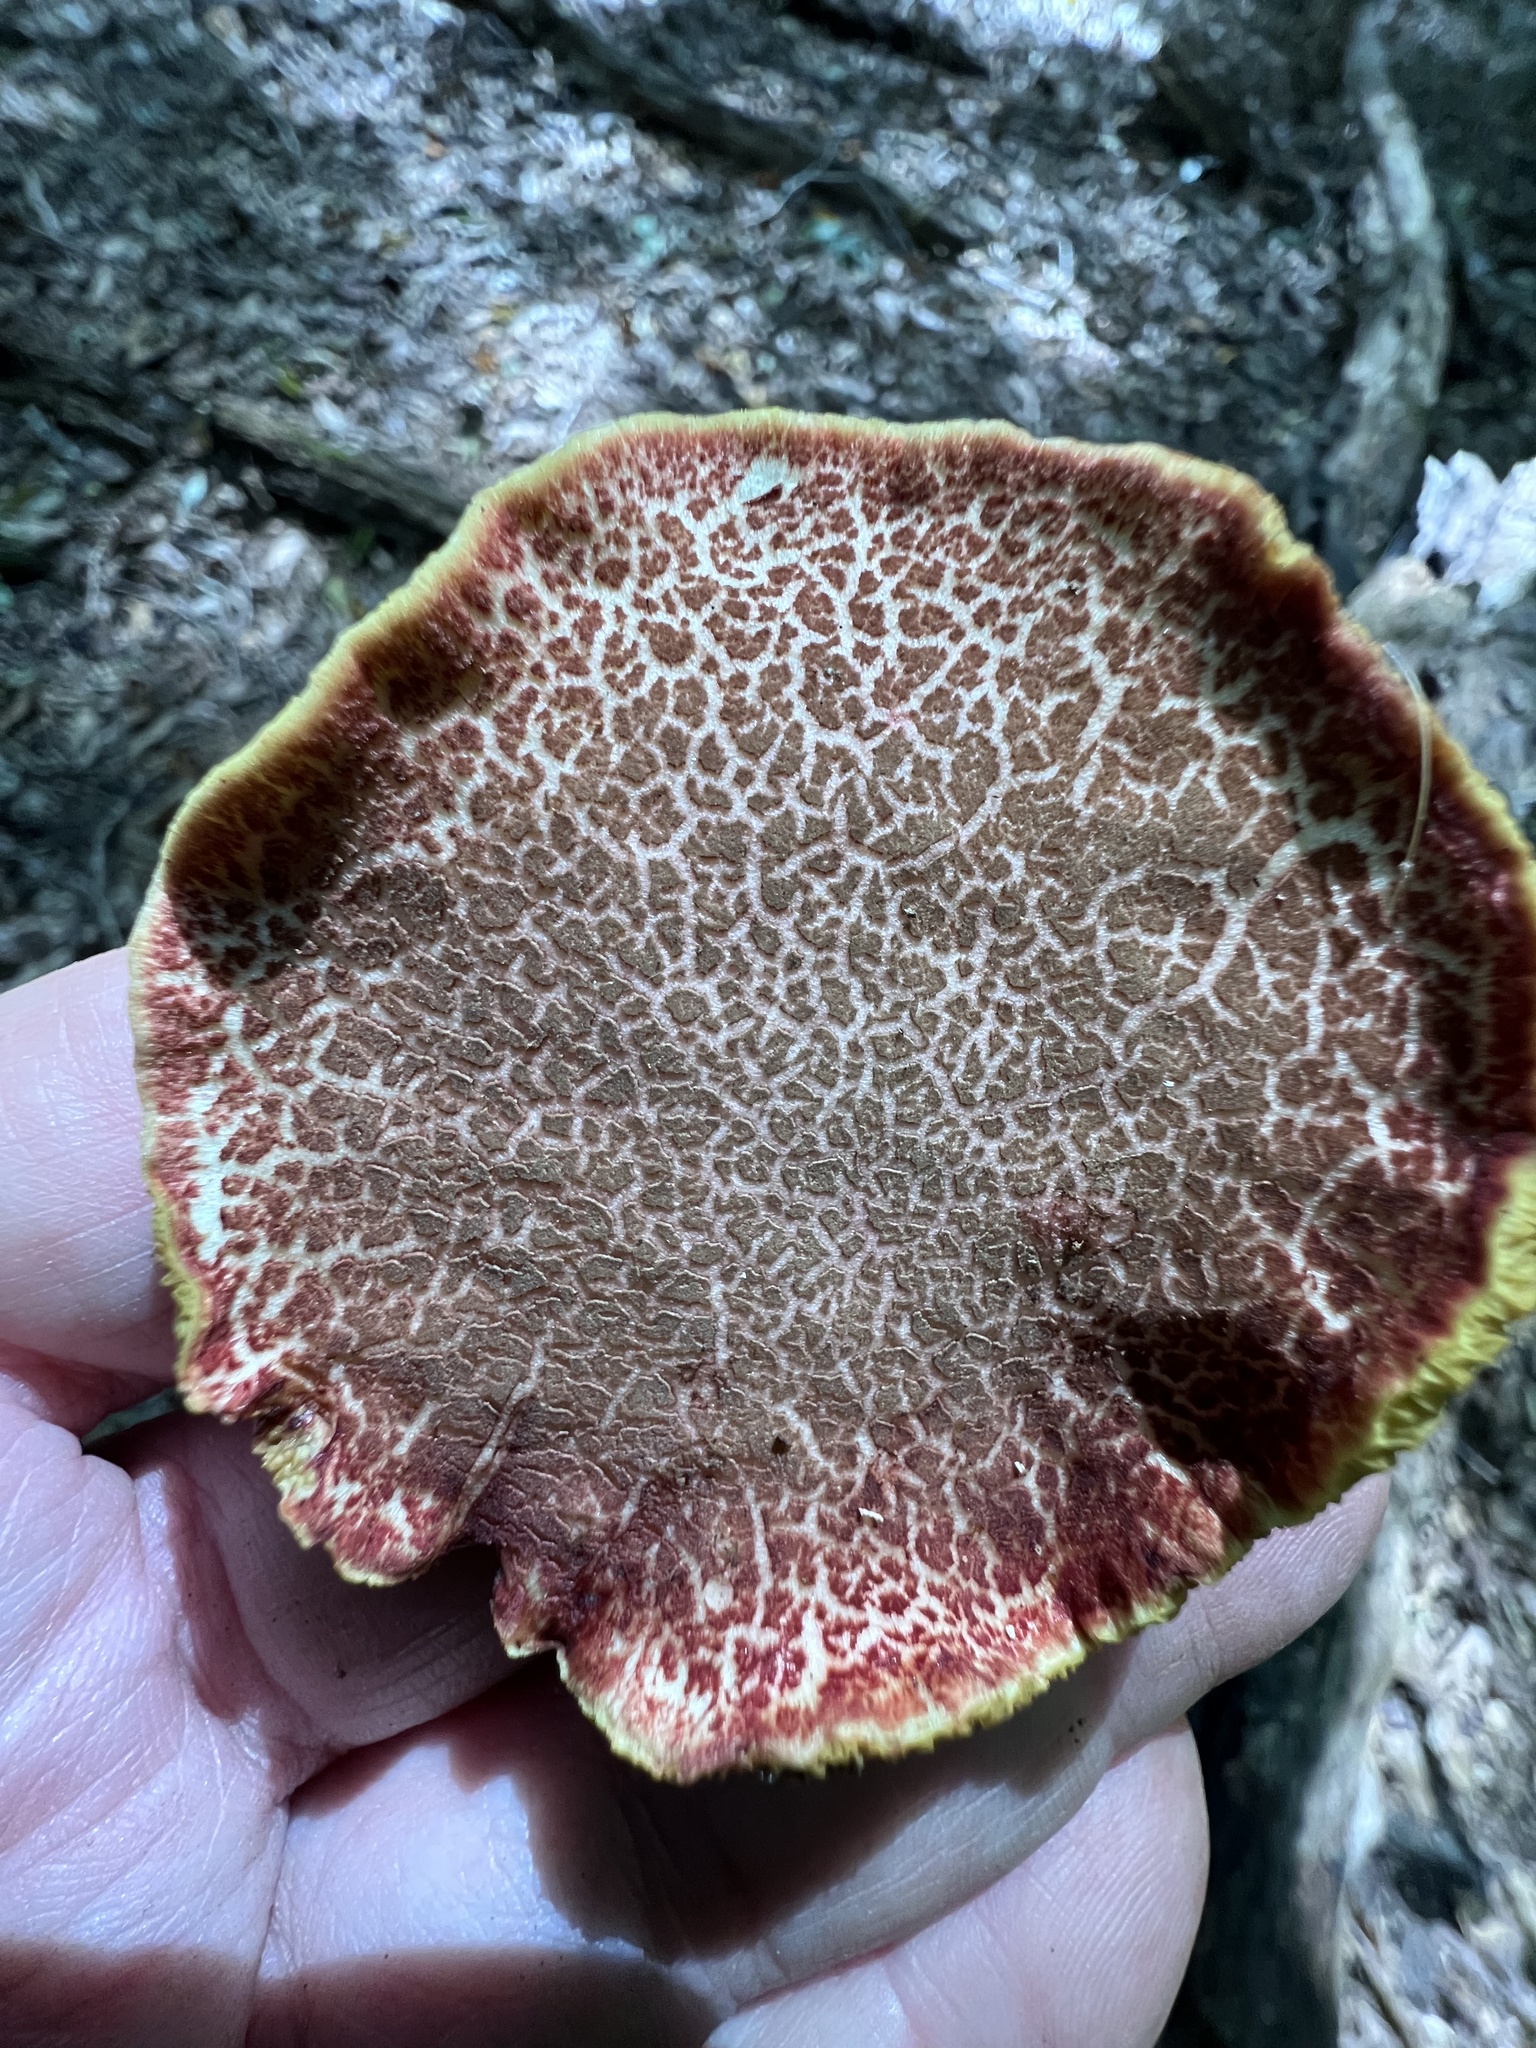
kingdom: Fungi
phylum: Basidiomycota
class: Agaricomycetes
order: Boletales
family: Boletaceae
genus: Xerocomellus
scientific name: Xerocomellus chrysenteron
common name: Red-cracking bolete
